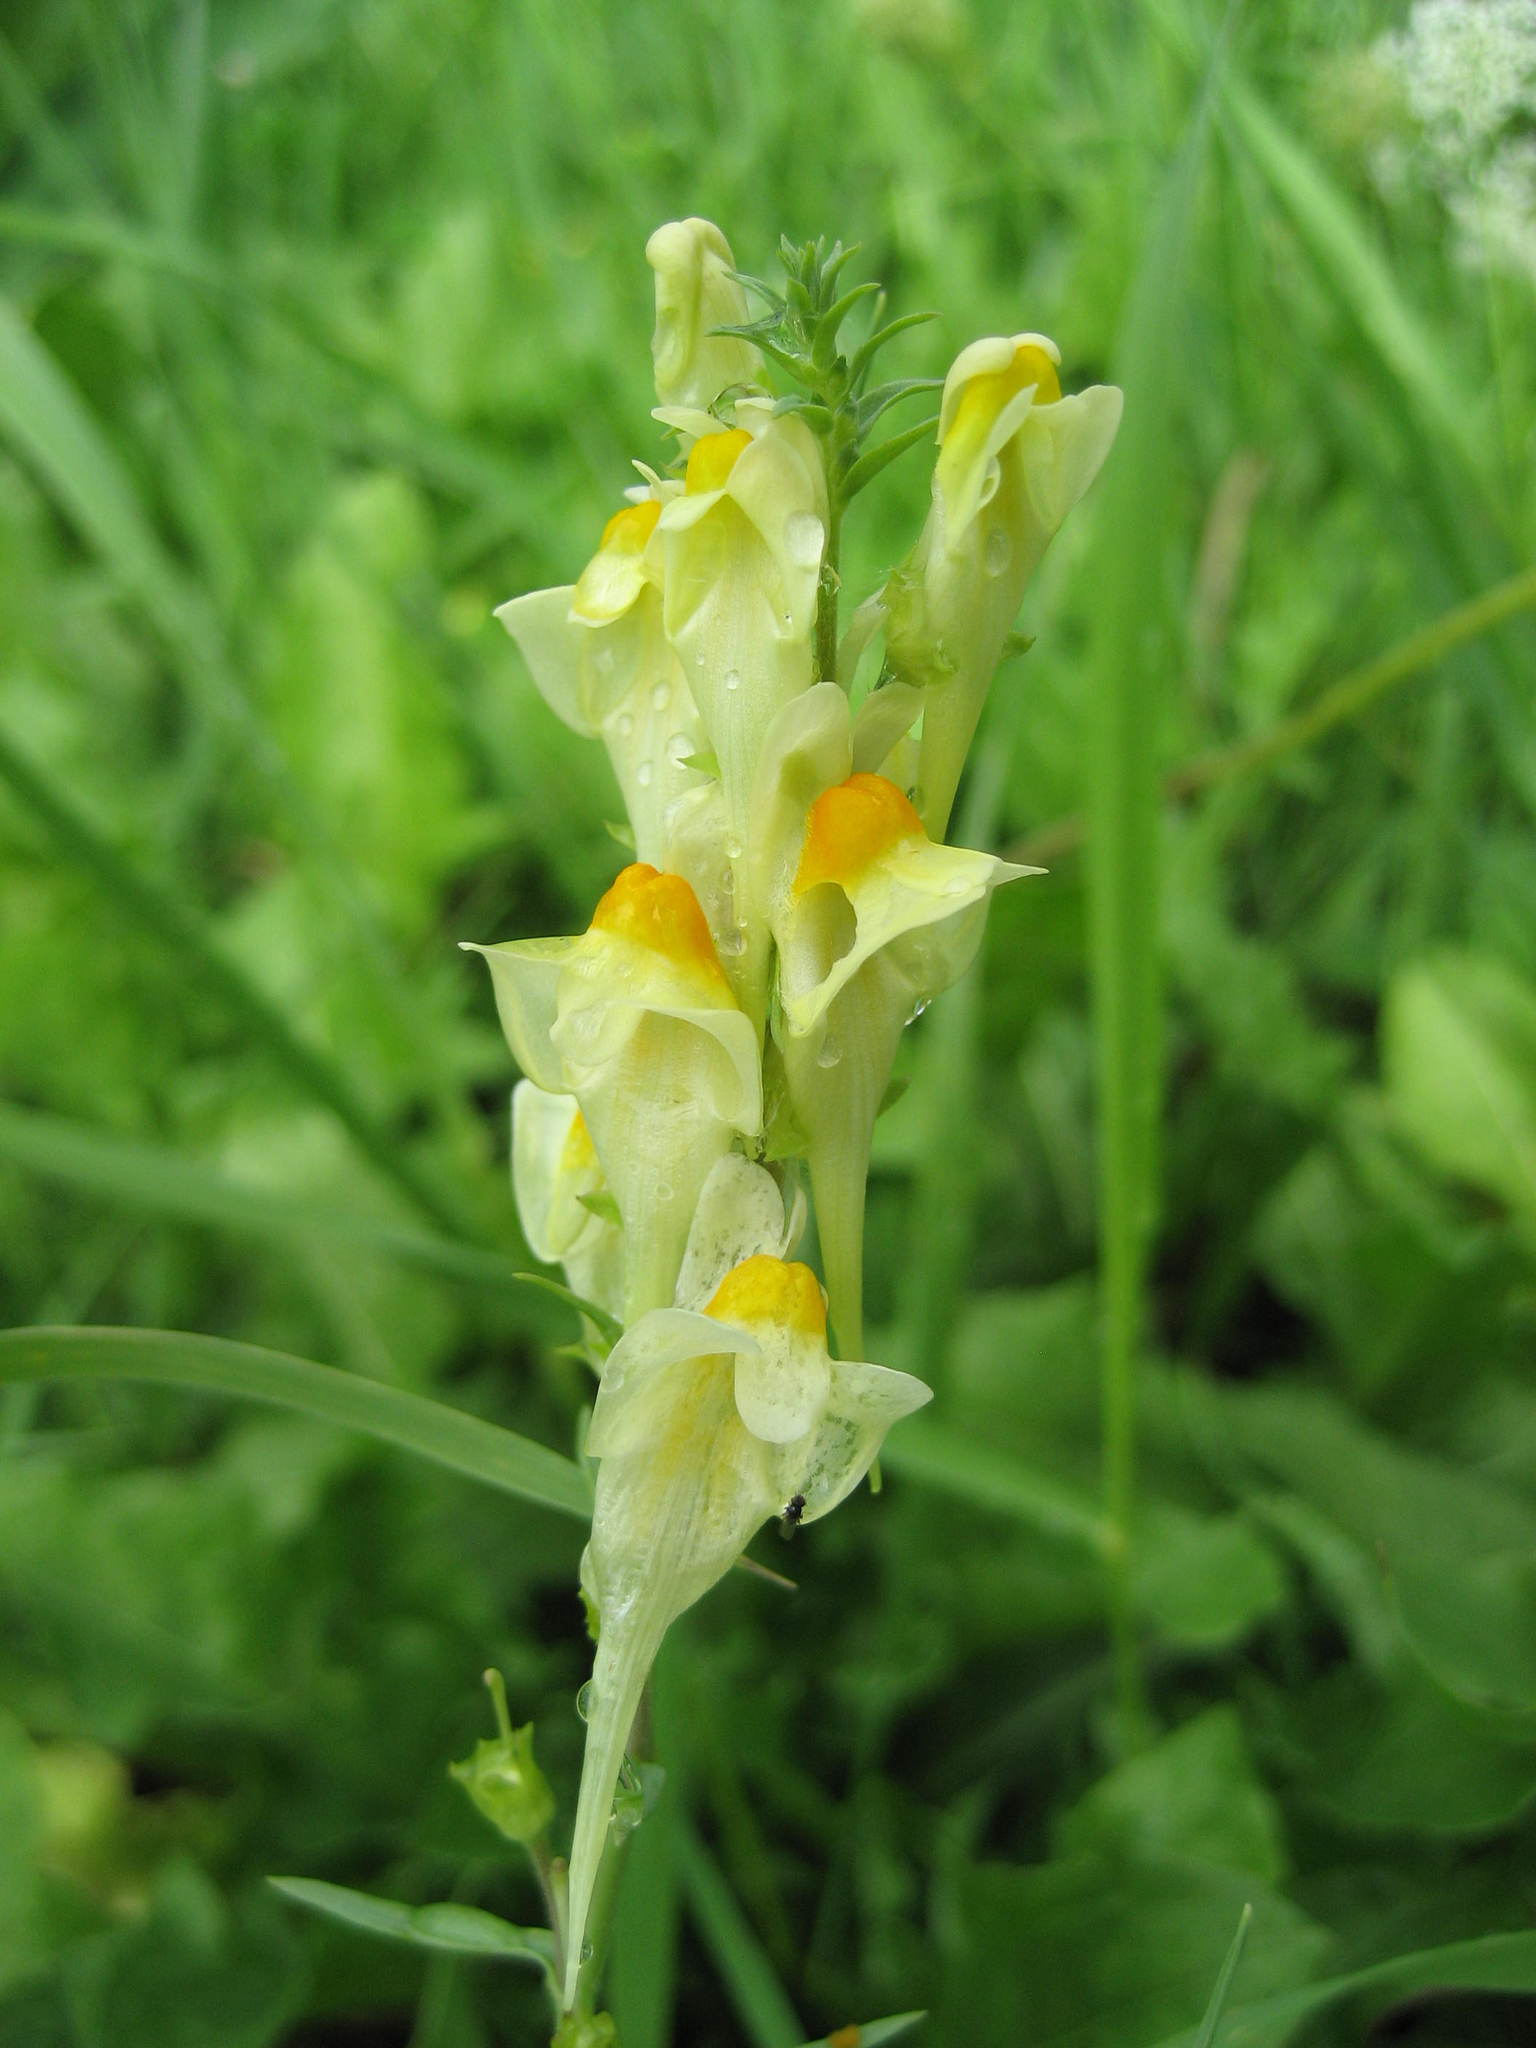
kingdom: Plantae
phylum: Tracheophyta
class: Magnoliopsida
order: Lamiales
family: Plantaginaceae
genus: Linaria
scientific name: Linaria vulgaris
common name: Butter and eggs
